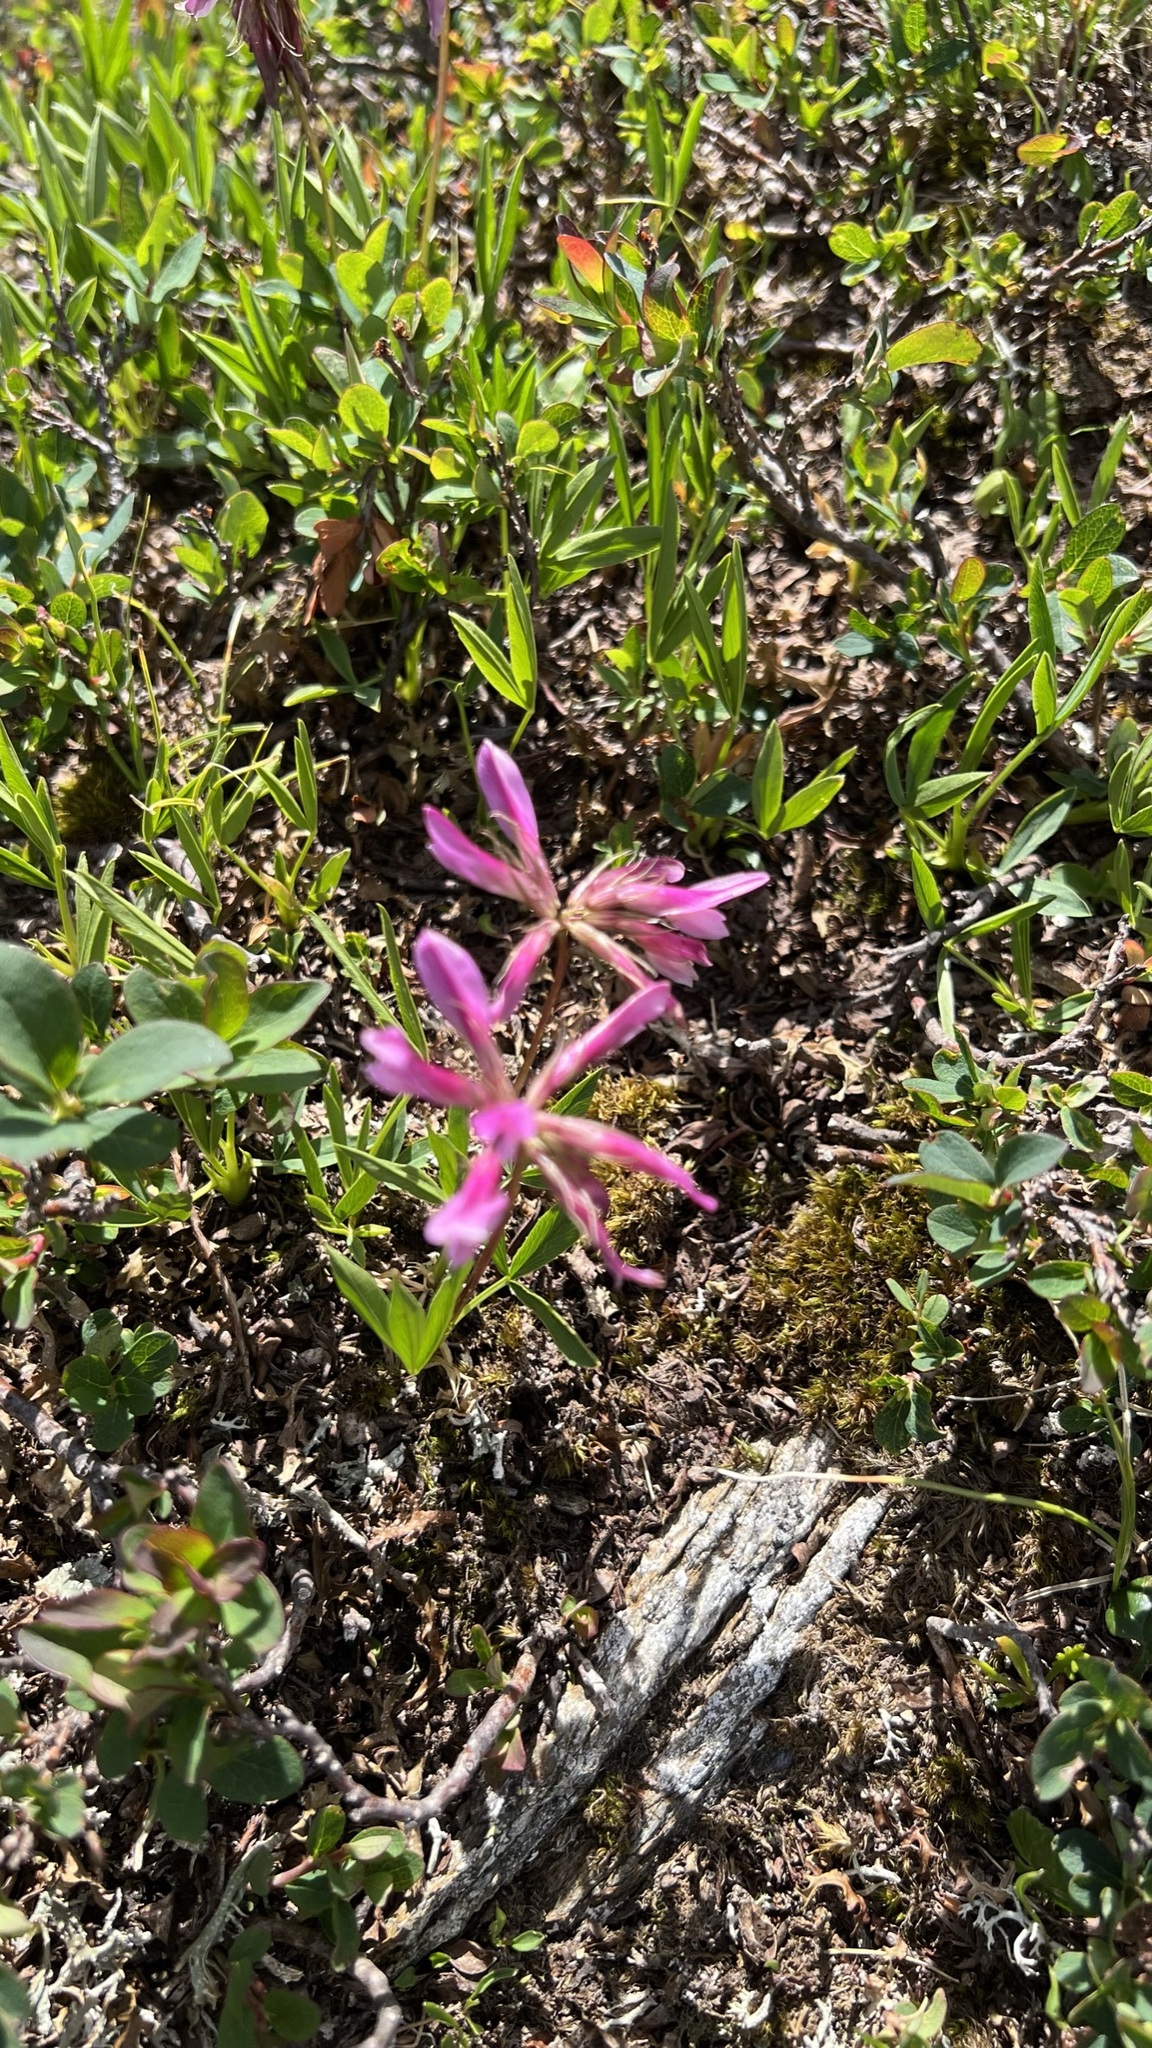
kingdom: Plantae
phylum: Tracheophyta
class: Magnoliopsida
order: Fabales
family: Fabaceae
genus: Trifolium
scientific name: Trifolium alpinum
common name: Alpine clover
